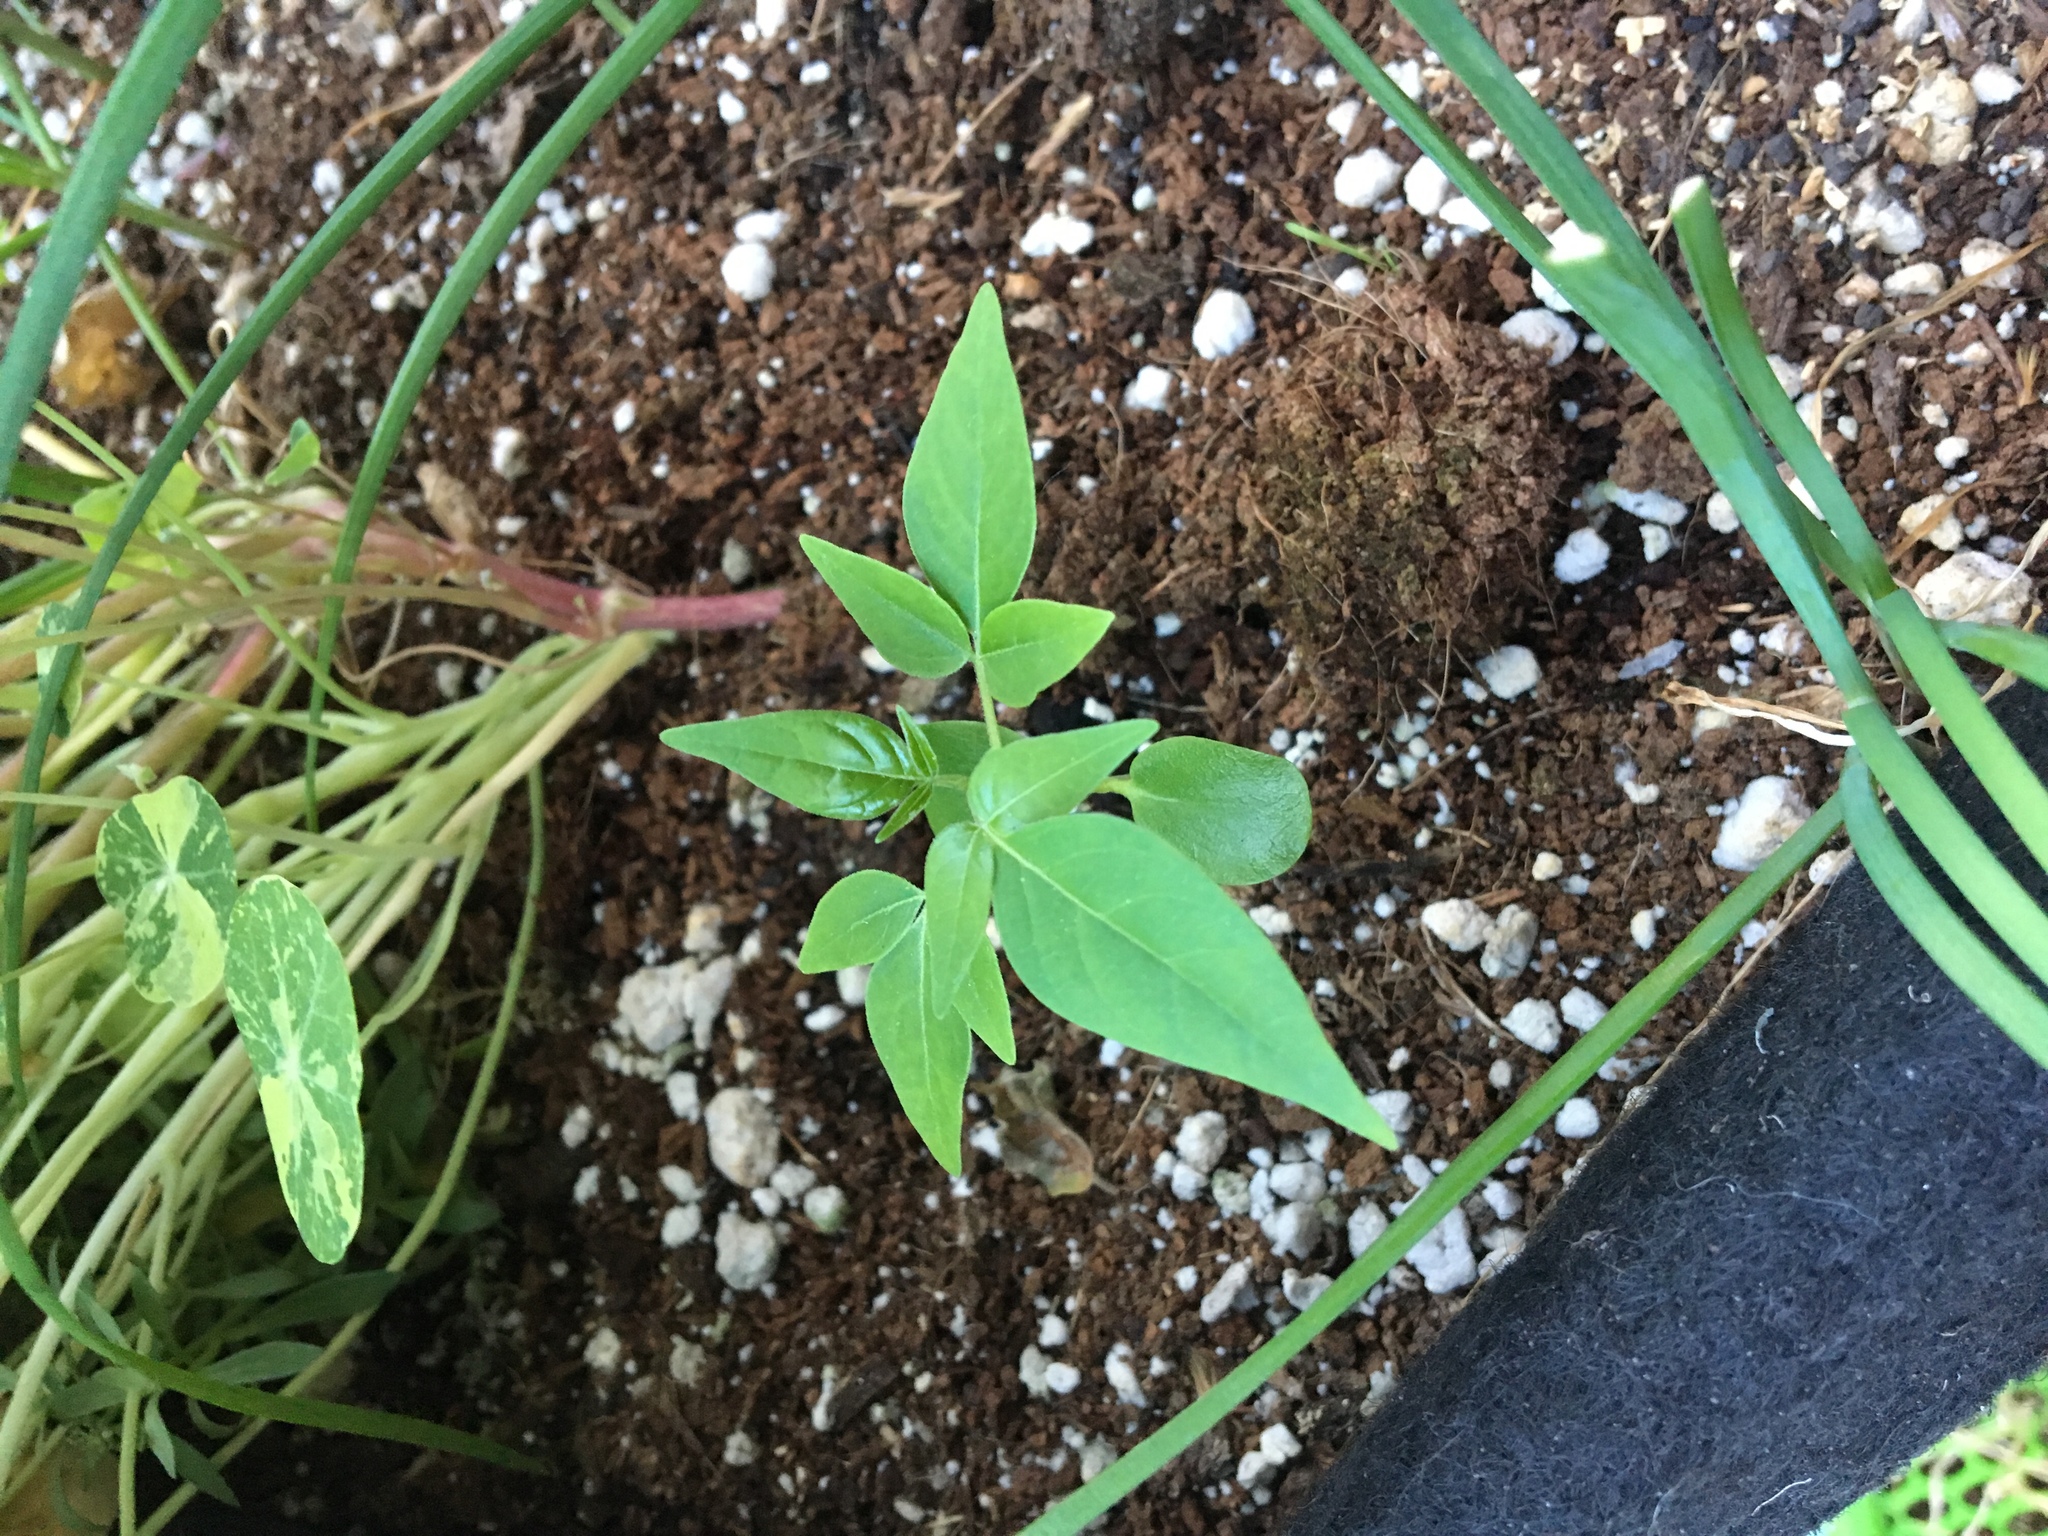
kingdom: Plantae
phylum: Tracheophyta
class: Magnoliopsida
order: Sapindales
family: Simaroubaceae
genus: Ailanthus
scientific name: Ailanthus altissima
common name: Tree-of-heaven
